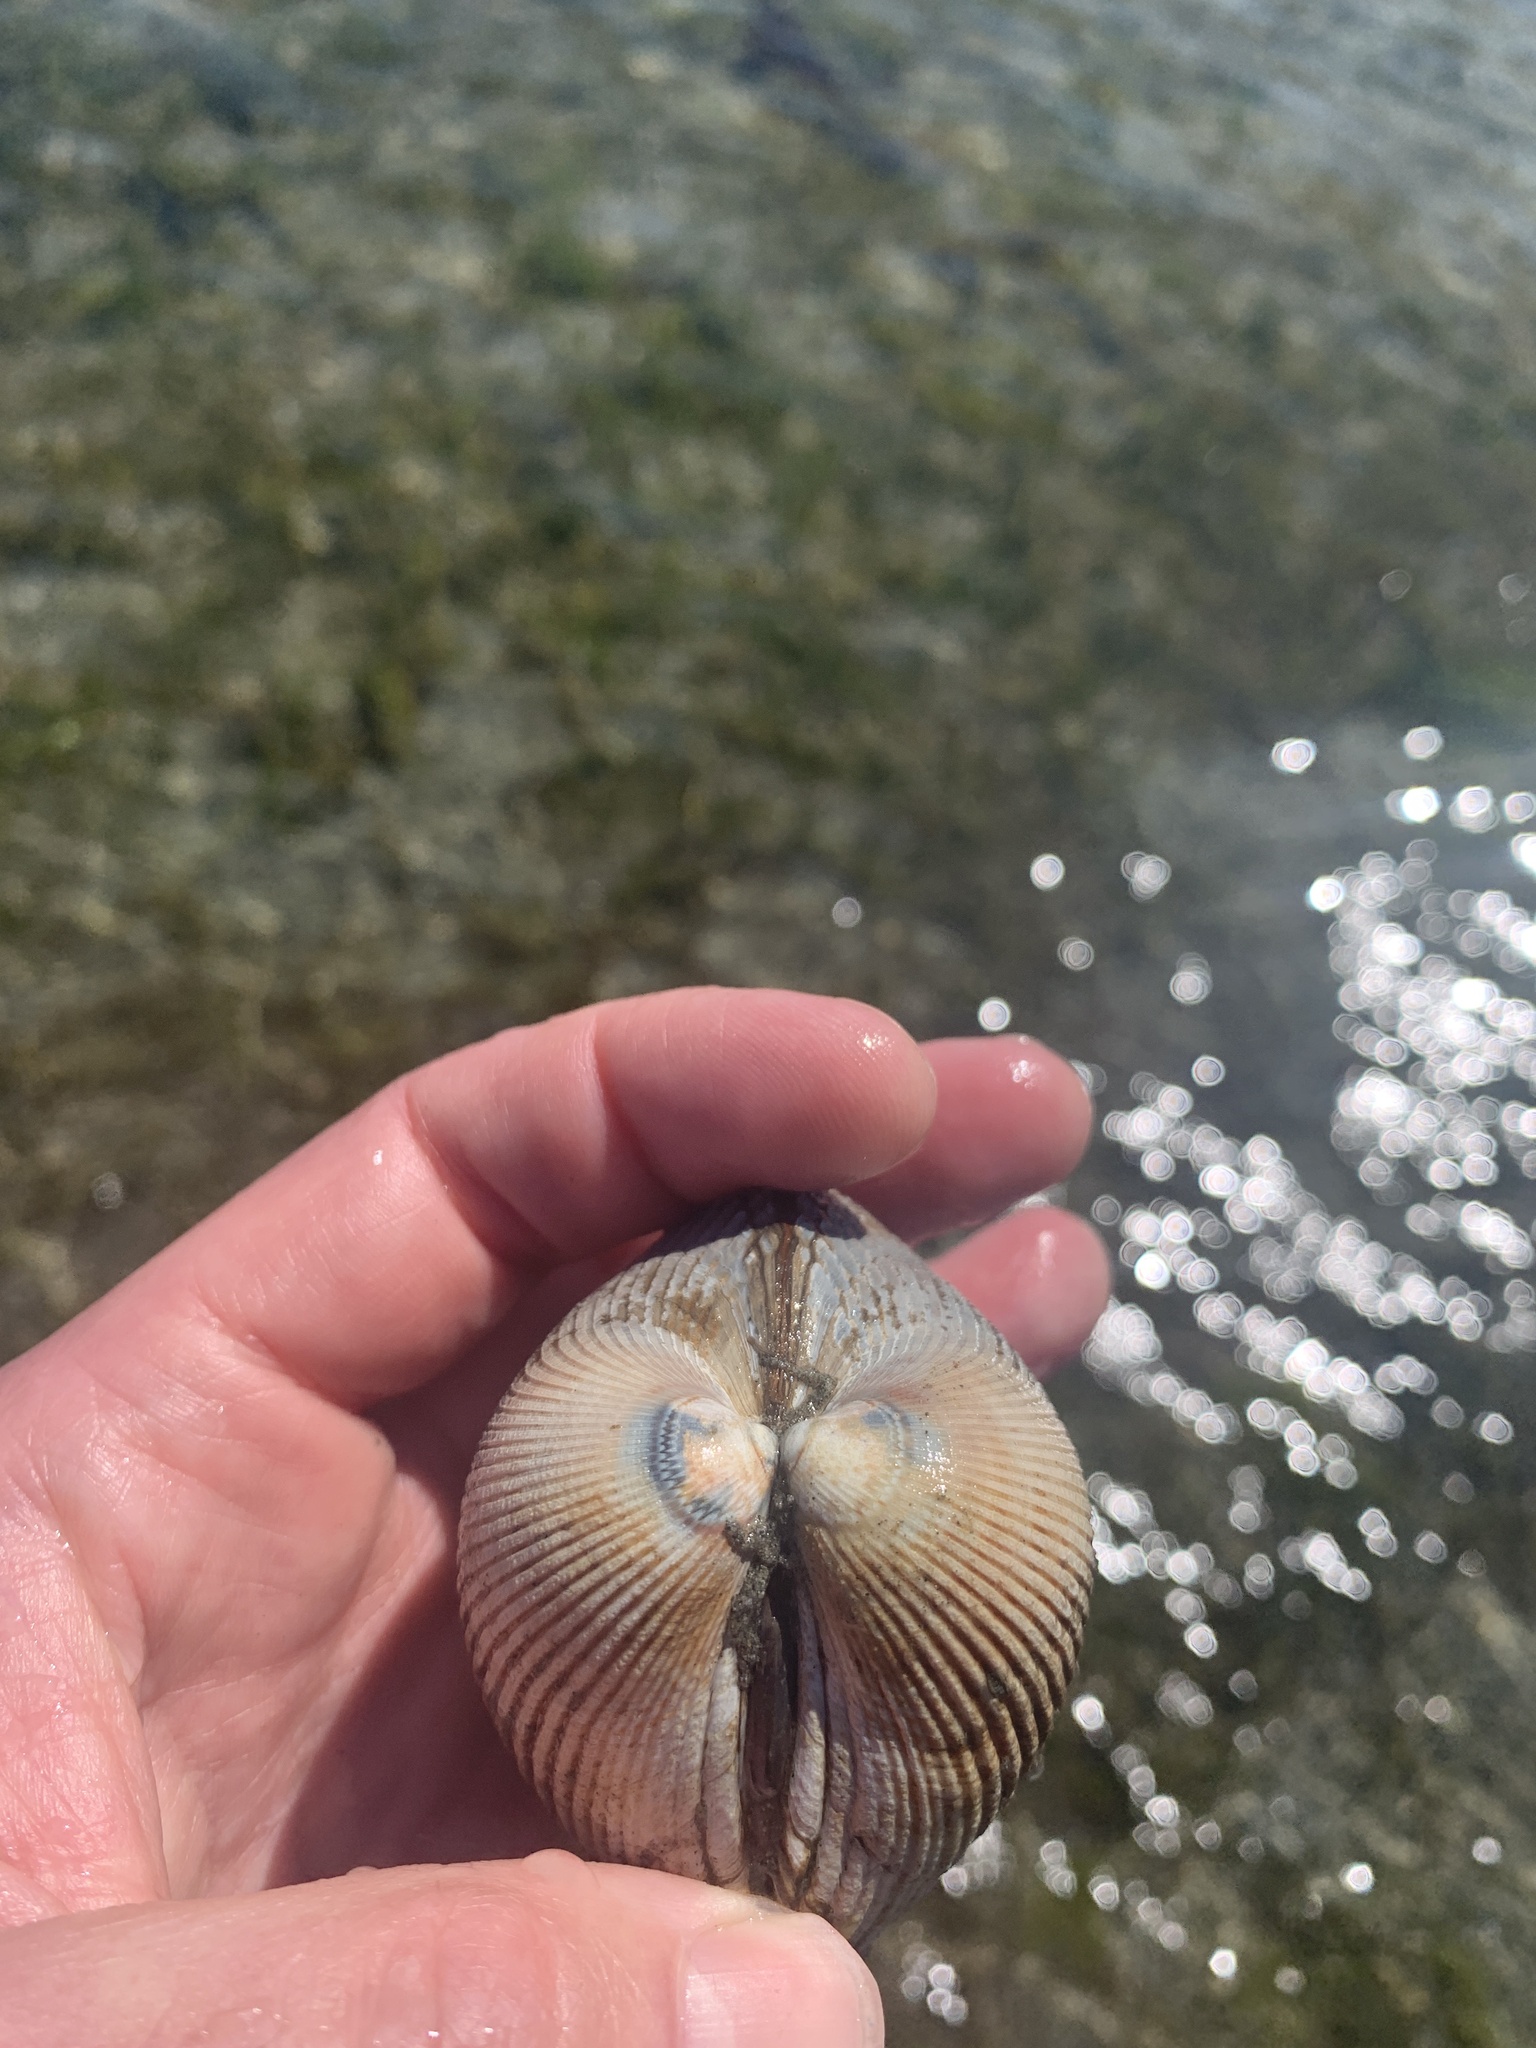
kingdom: Animalia
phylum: Mollusca
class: Bivalvia
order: Cardiida
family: Cardiidae
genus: Clinocardium
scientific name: Clinocardium nuttallii
